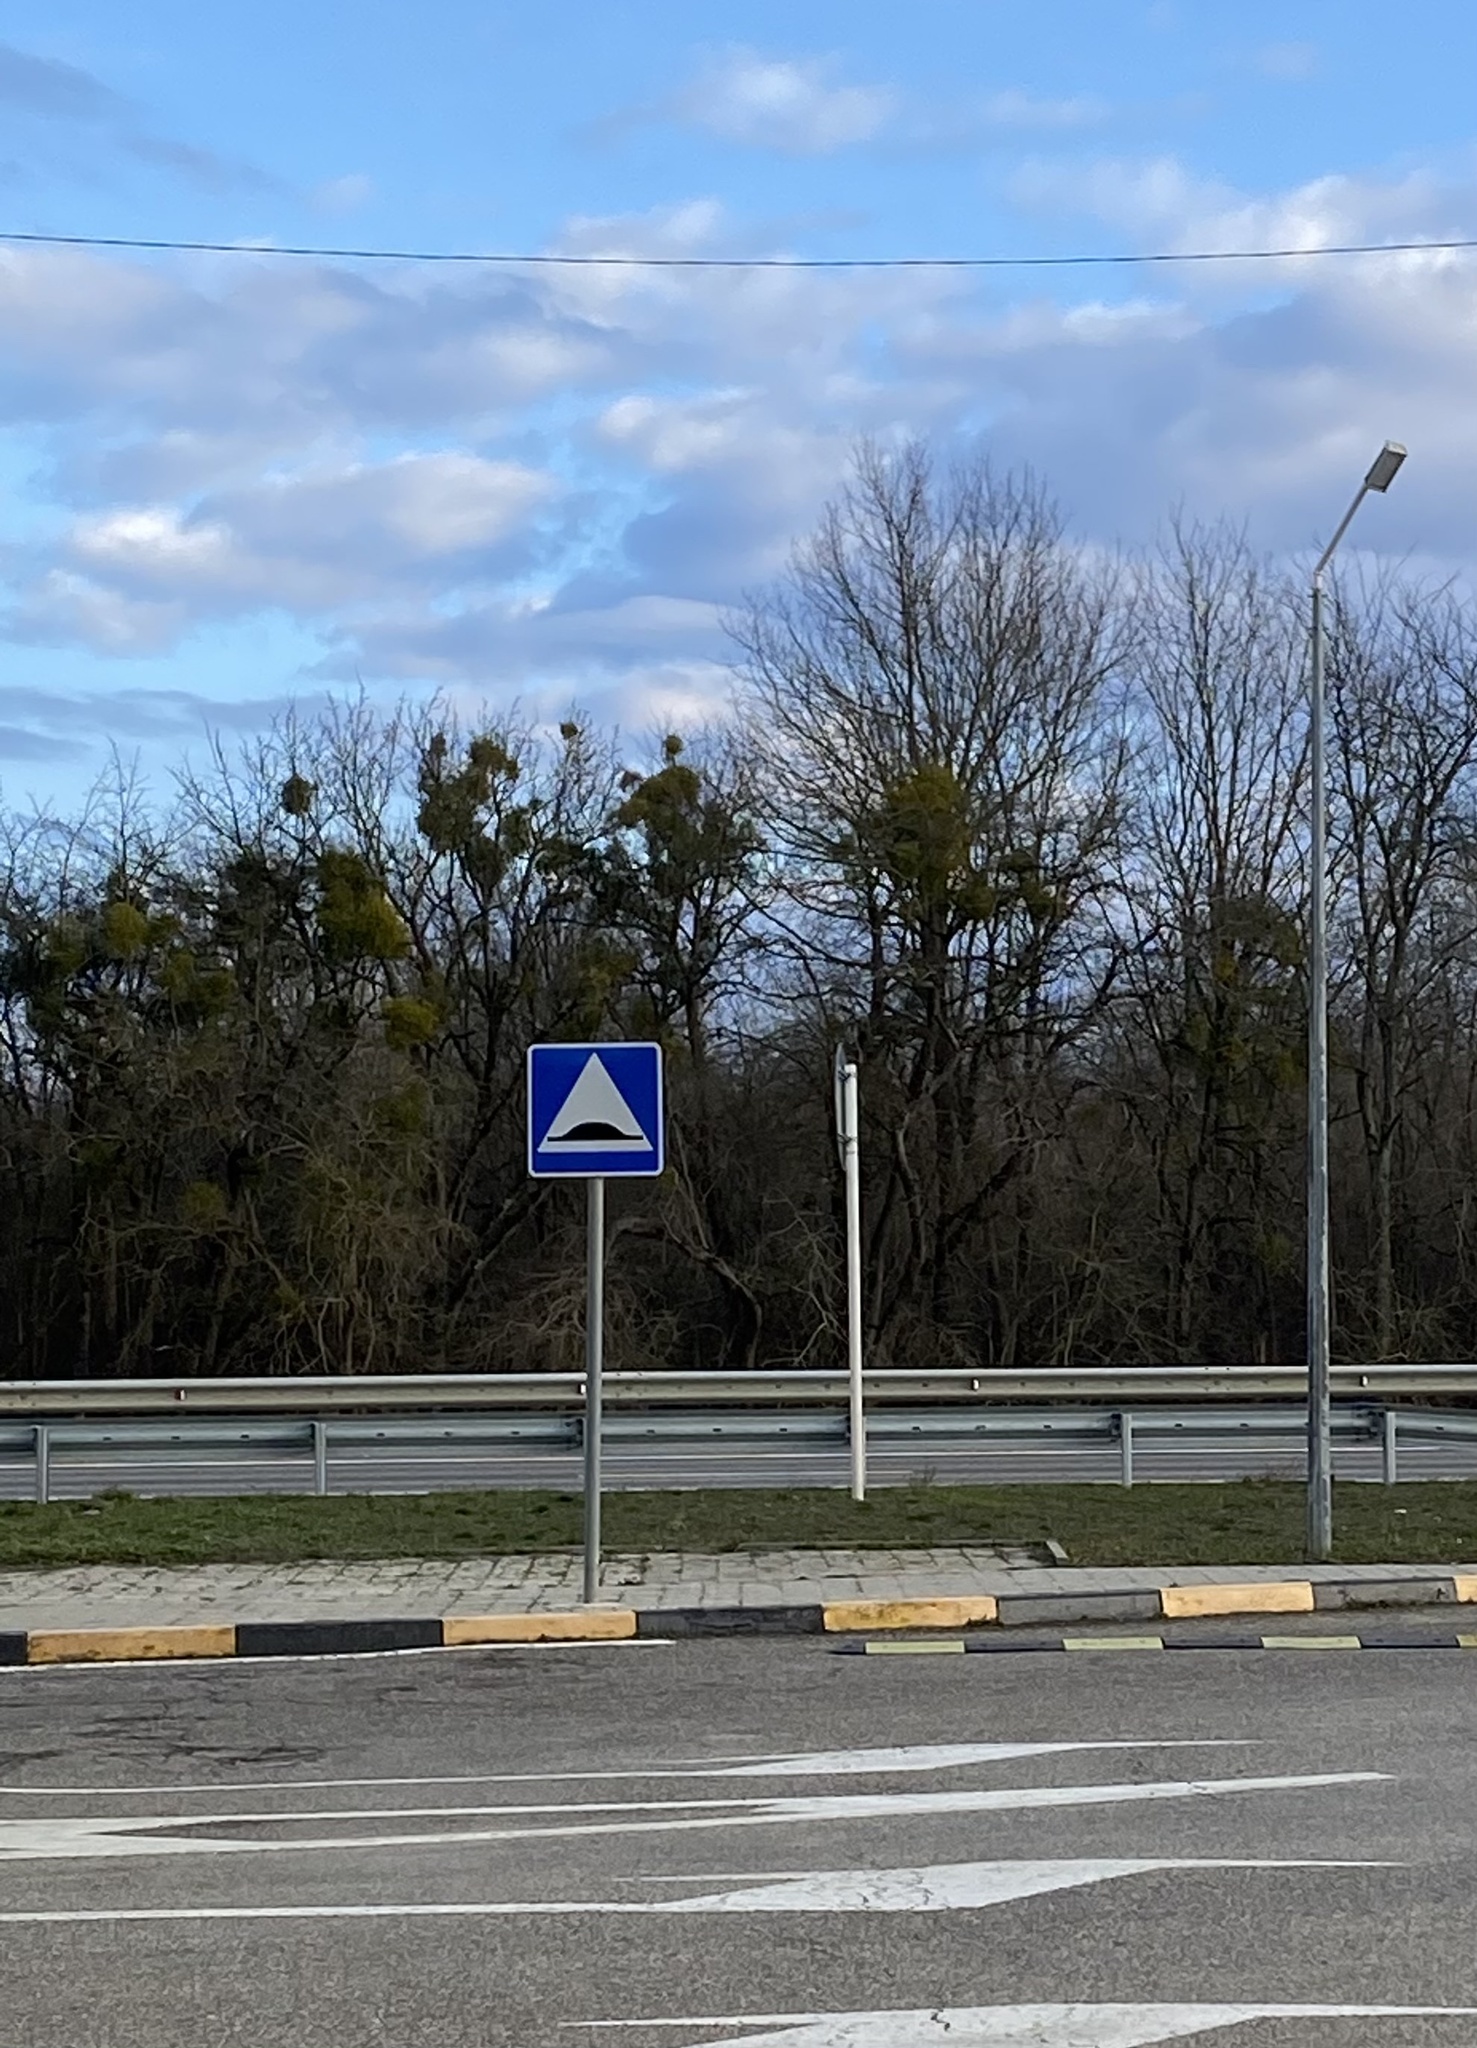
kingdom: Plantae
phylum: Tracheophyta
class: Magnoliopsida
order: Santalales
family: Viscaceae
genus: Viscum
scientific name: Viscum album
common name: Mistletoe
